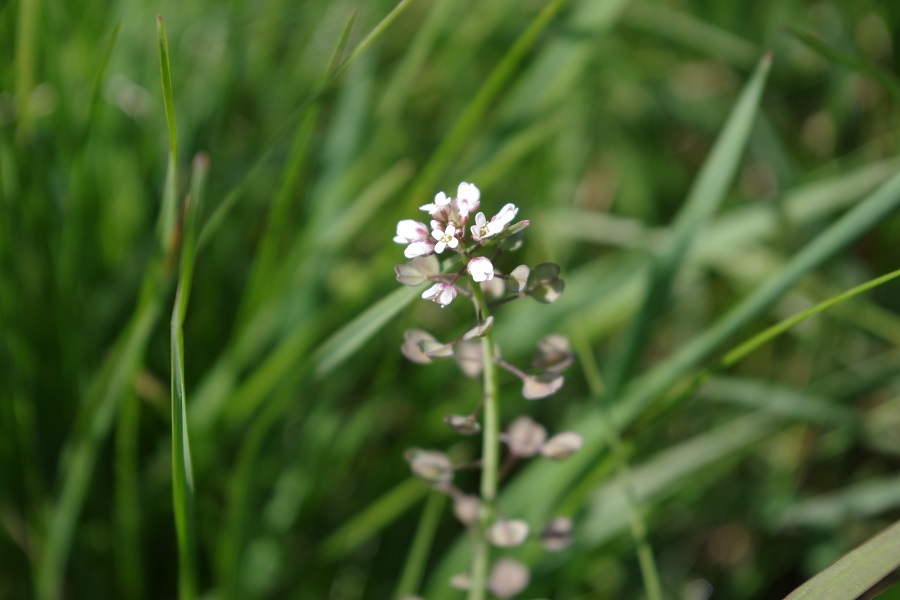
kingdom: Plantae
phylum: Tracheophyta
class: Magnoliopsida
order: Brassicales
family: Brassicaceae
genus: Noccaea
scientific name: Noccaea perfoliata
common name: Perfoliate pennycress
